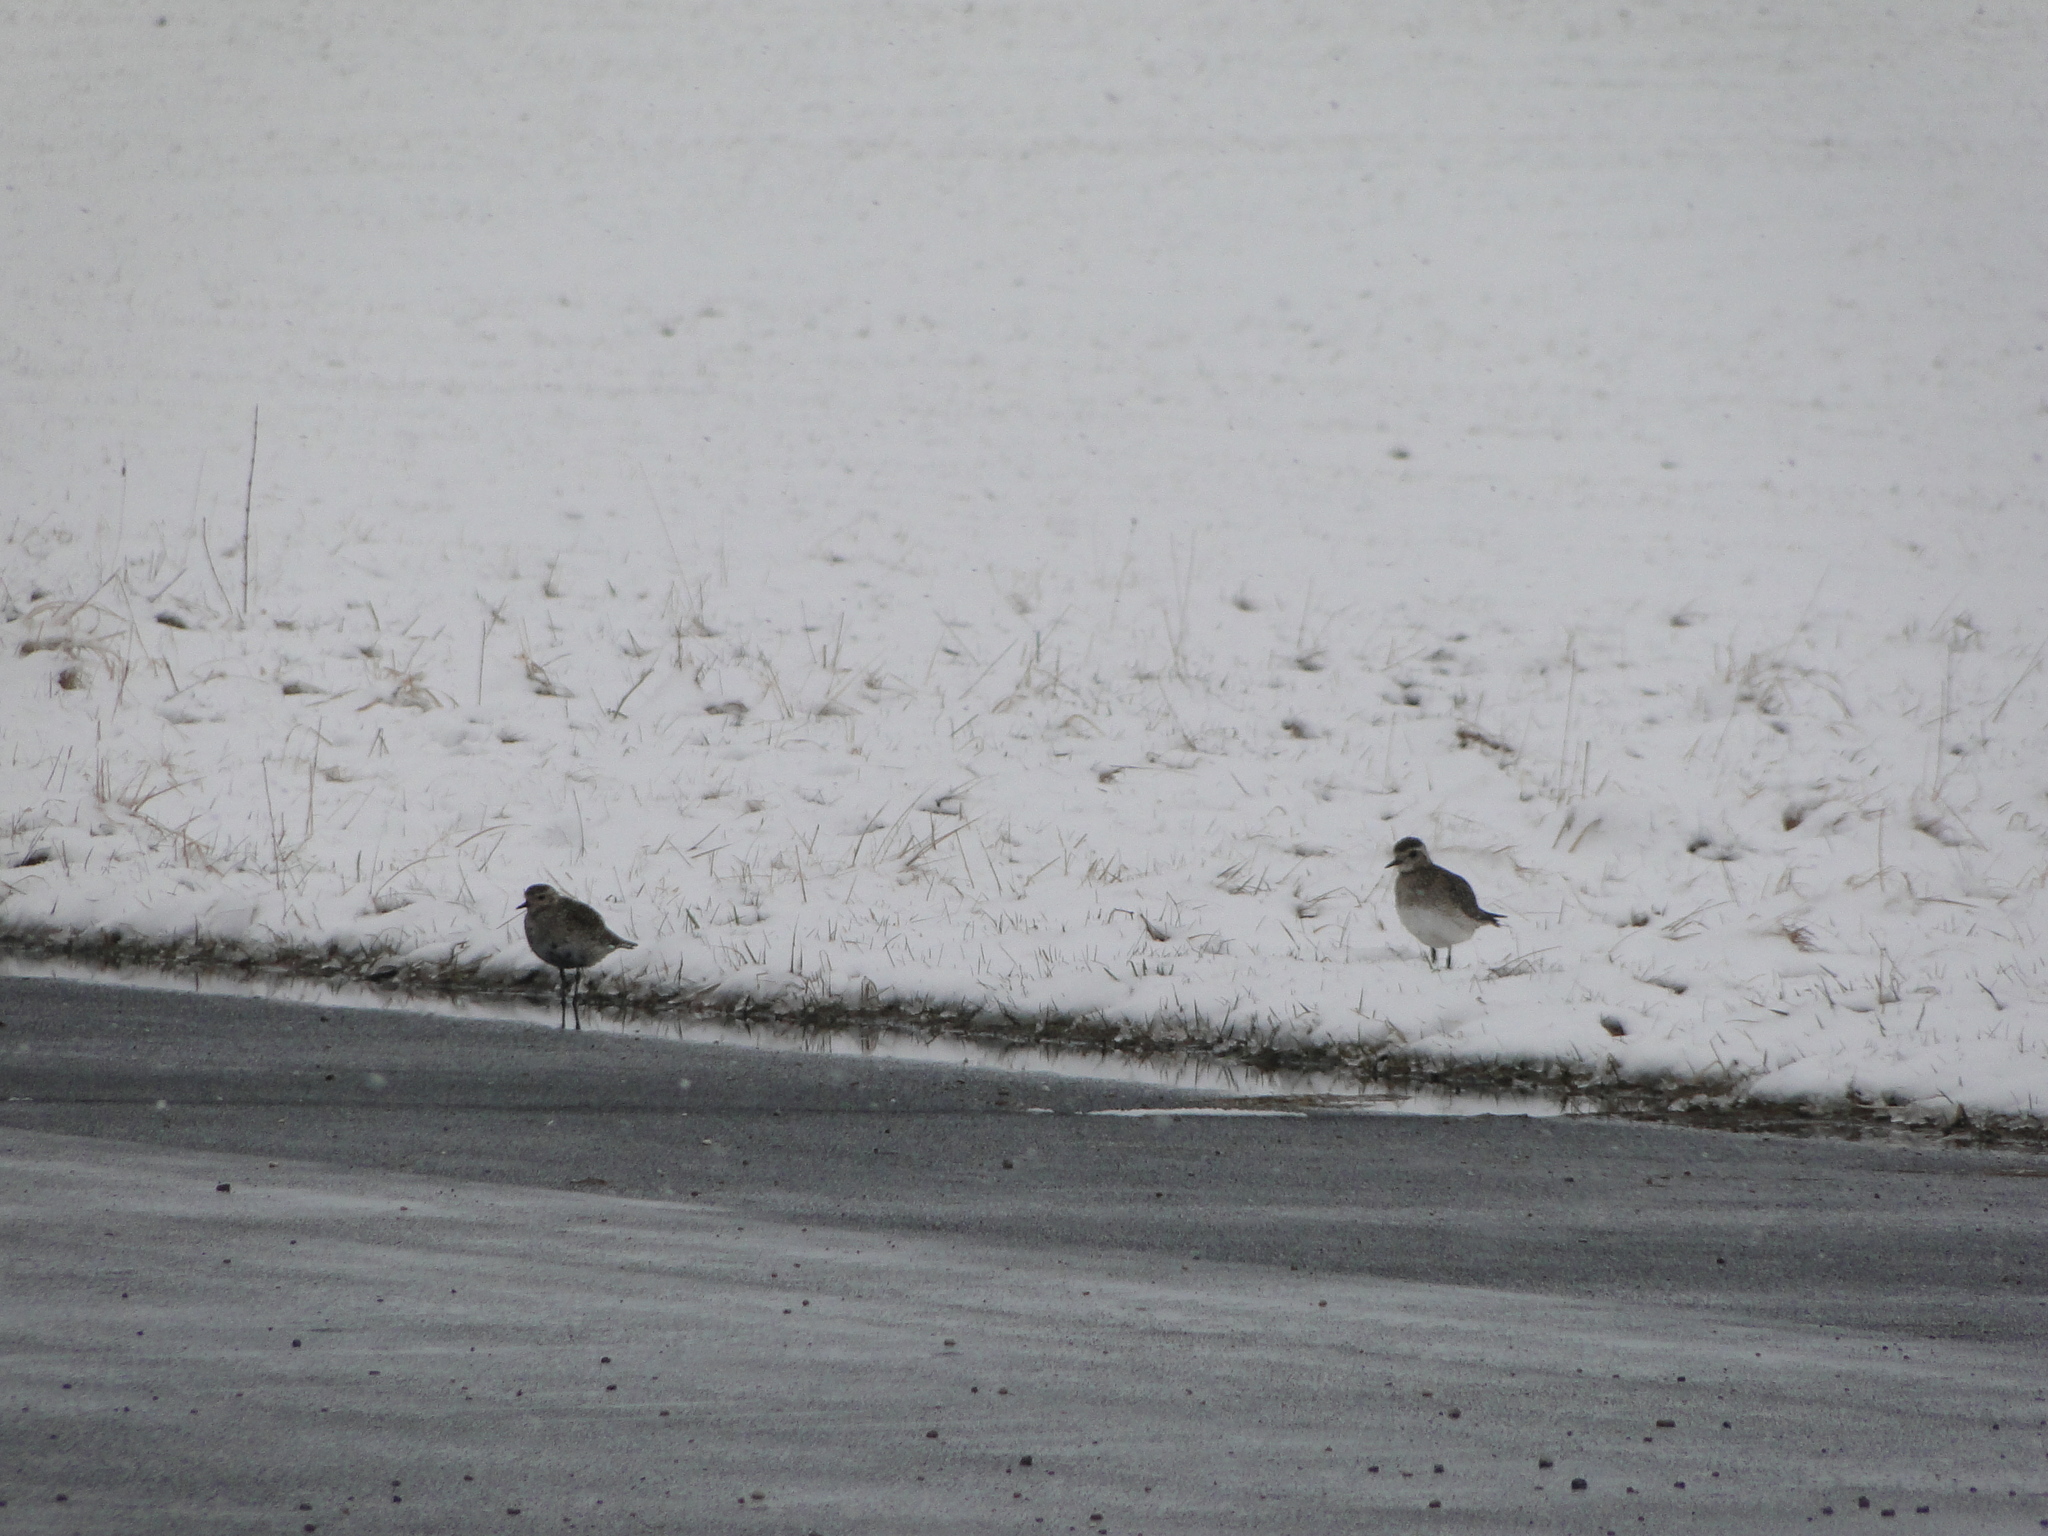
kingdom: Animalia
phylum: Chordata
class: Aves
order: Charadriiformes
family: Charadriidae
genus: Pluvialis
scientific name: Pluvialis apricaria
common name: European golden plover
